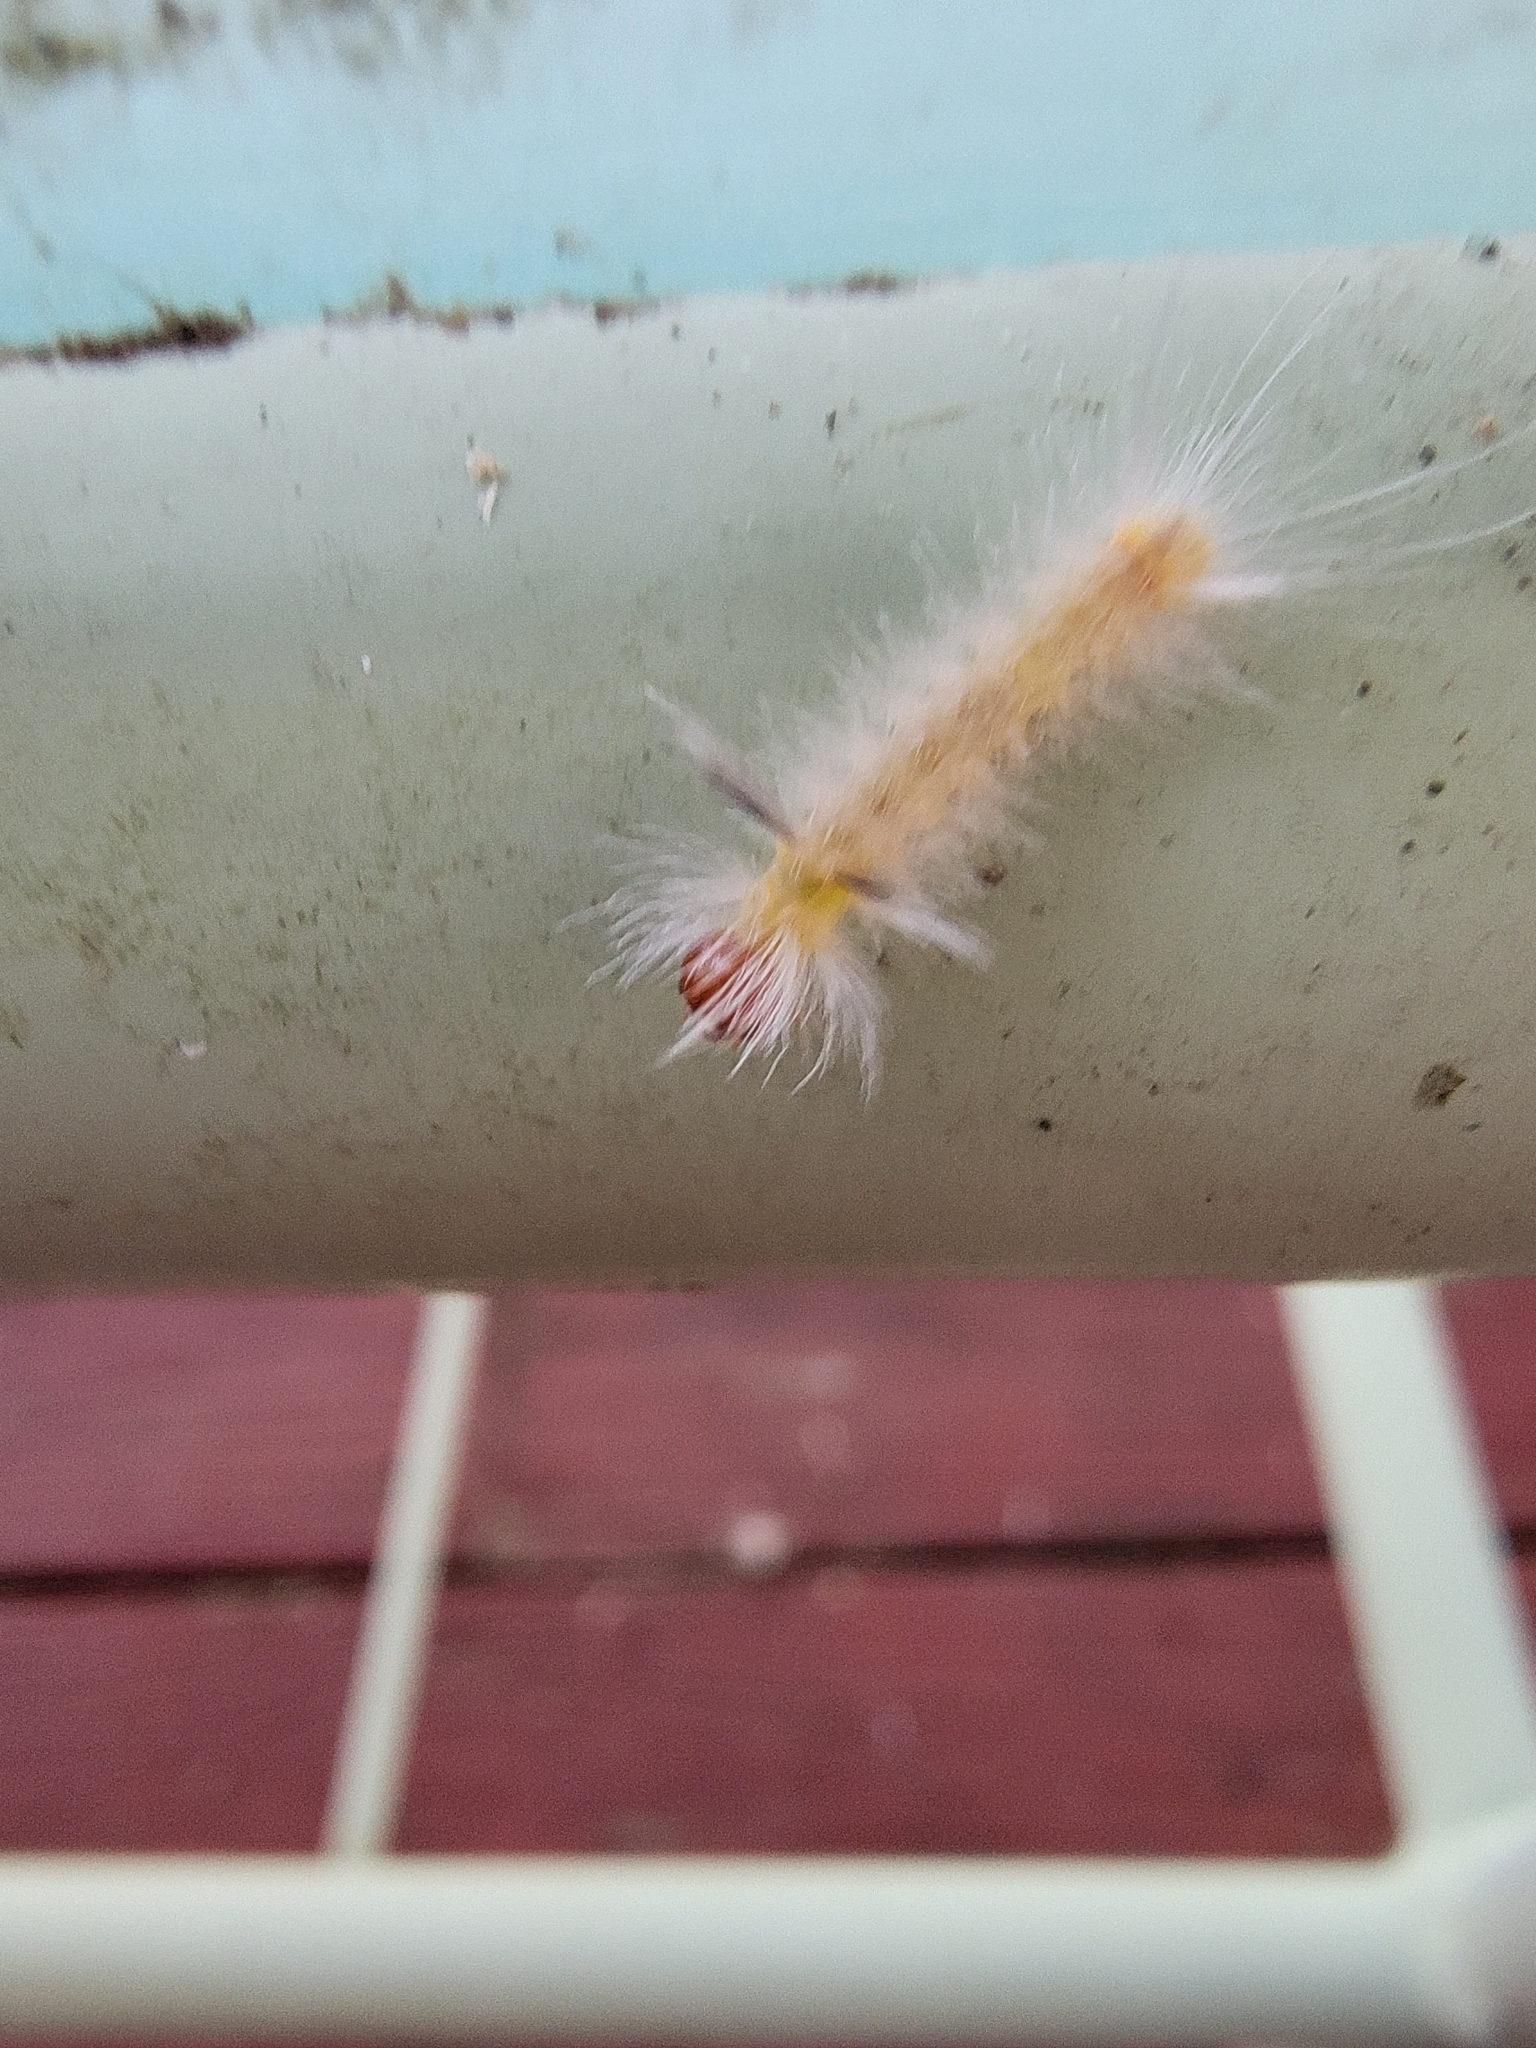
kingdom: Animalia
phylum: Arthropoda
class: Insecta
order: Lepidoptera
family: Erebidae
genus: Halysidota
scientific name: Halysidota tessellaris
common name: Banded tussock moth
